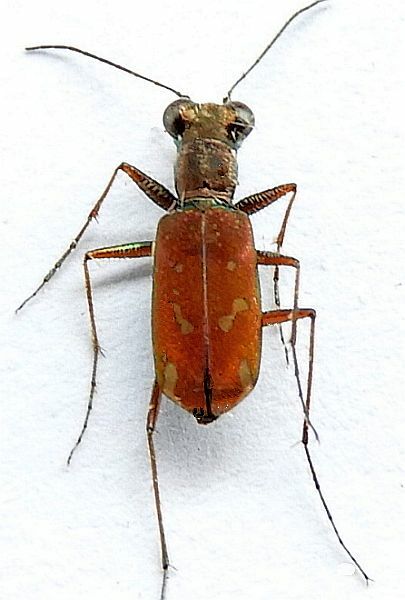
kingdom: Animalia
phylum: Arthropoda
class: Insecta
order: Coleoptera
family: Carabidae
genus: Brasiella
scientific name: Brasiella wickhami
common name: Sonoran tiger beetle
